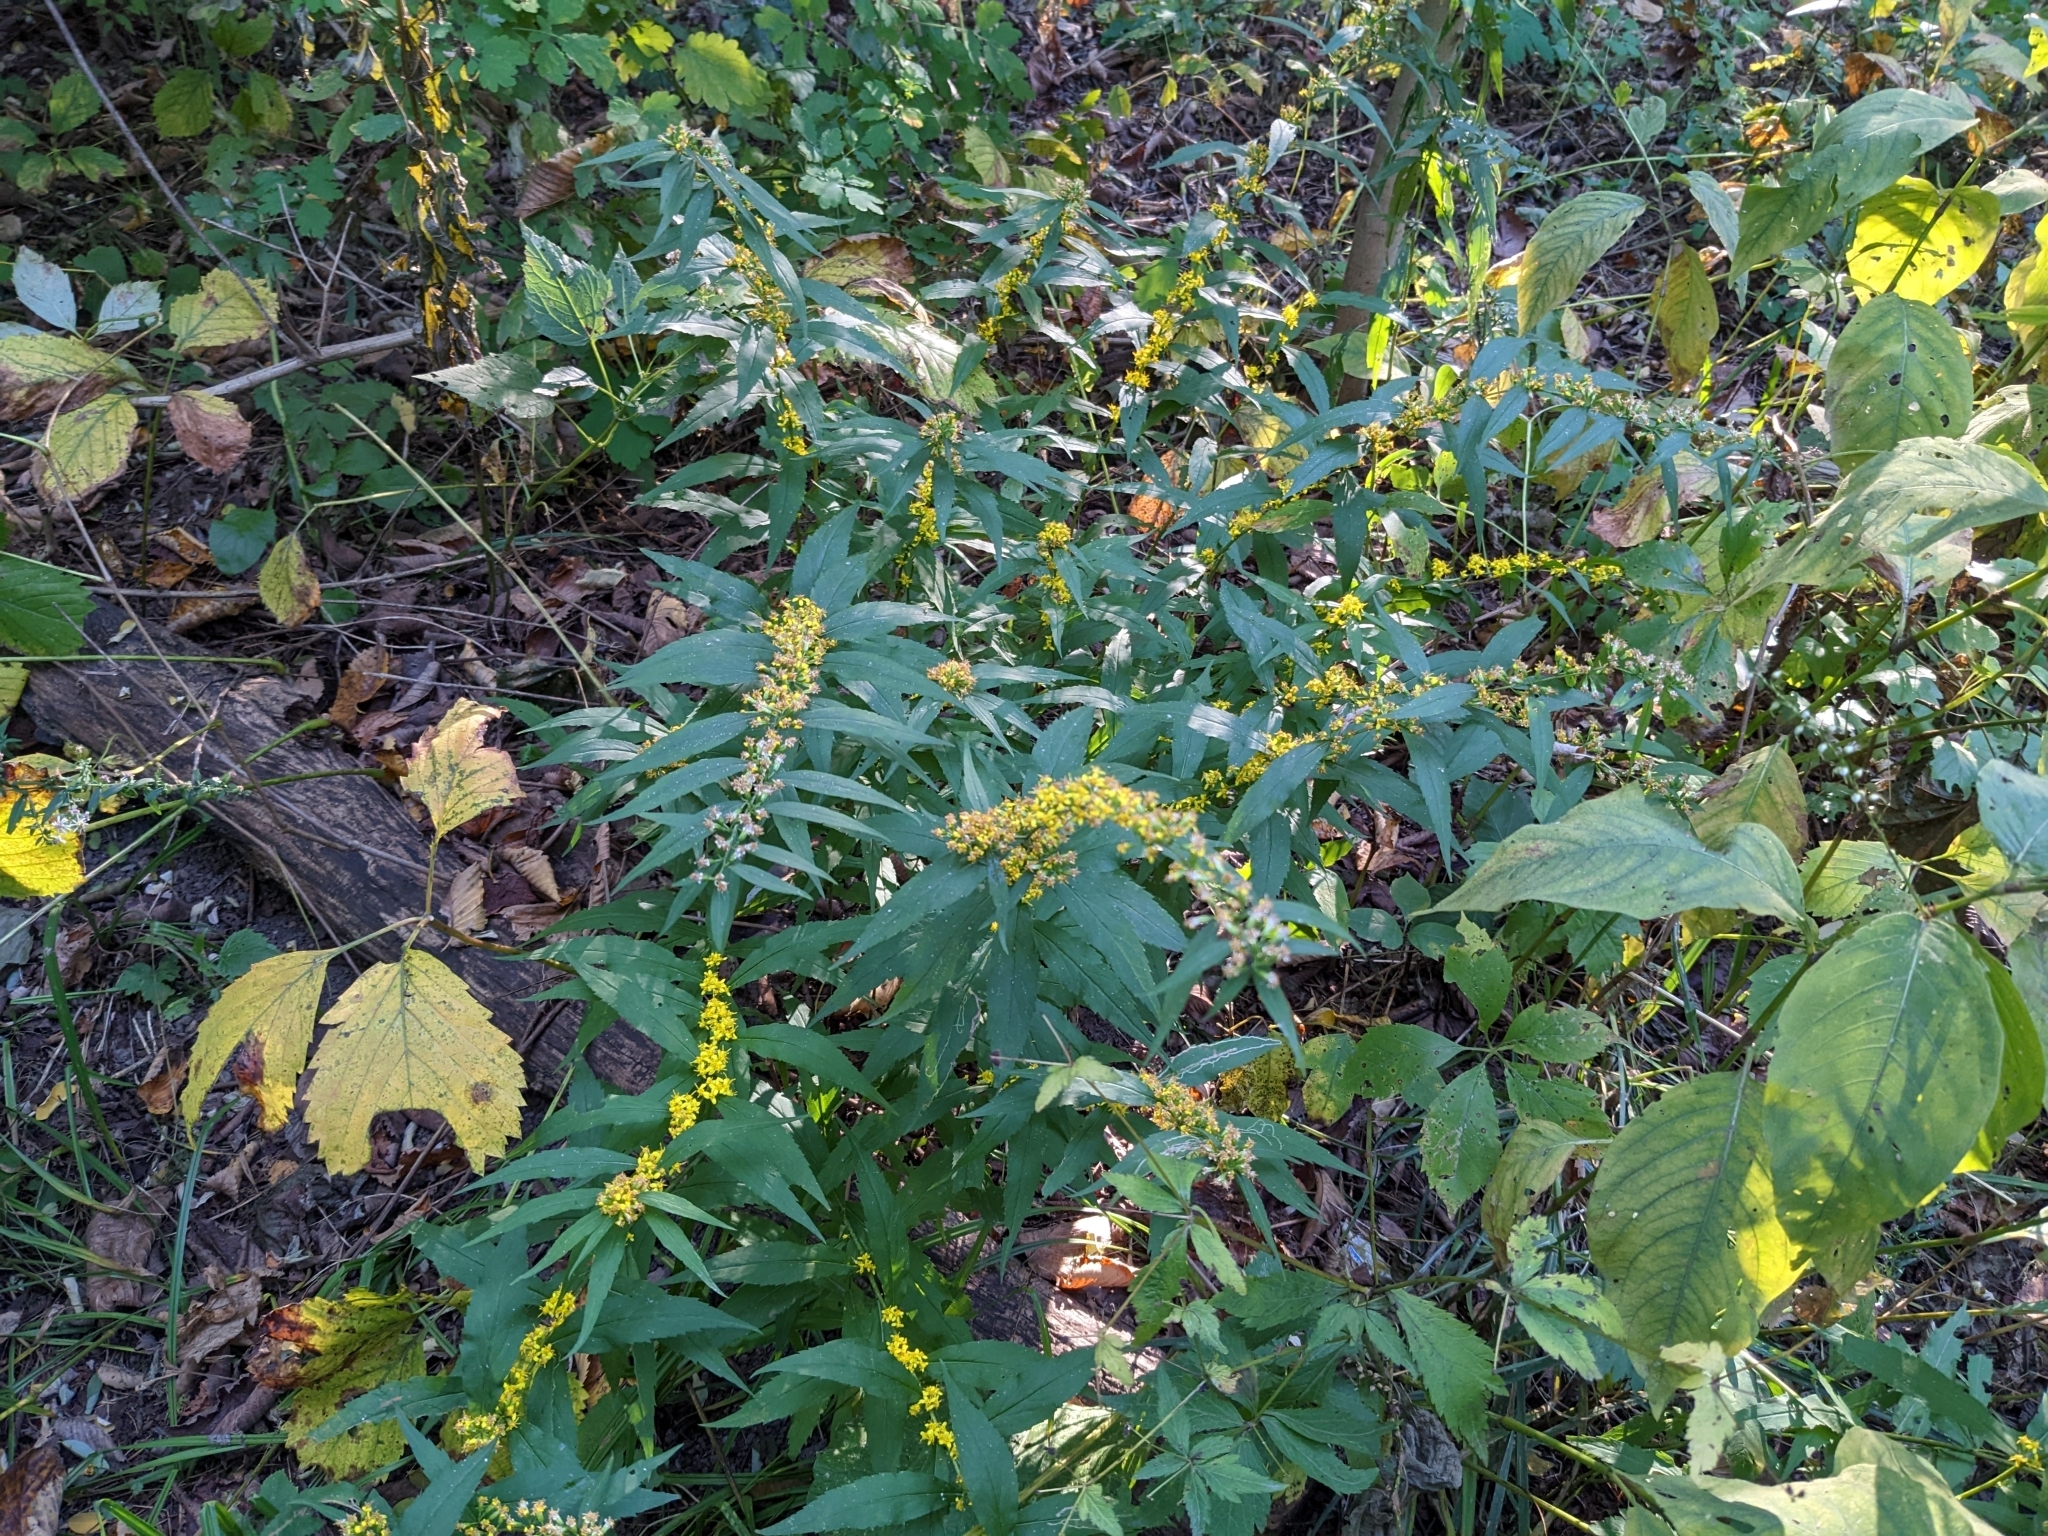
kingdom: Plantae
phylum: Tracheophyta
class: Magnoliopsida
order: Asterales
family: Asteraceae
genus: Solidago
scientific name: Solidago caesia
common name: Woodland goldenrod
